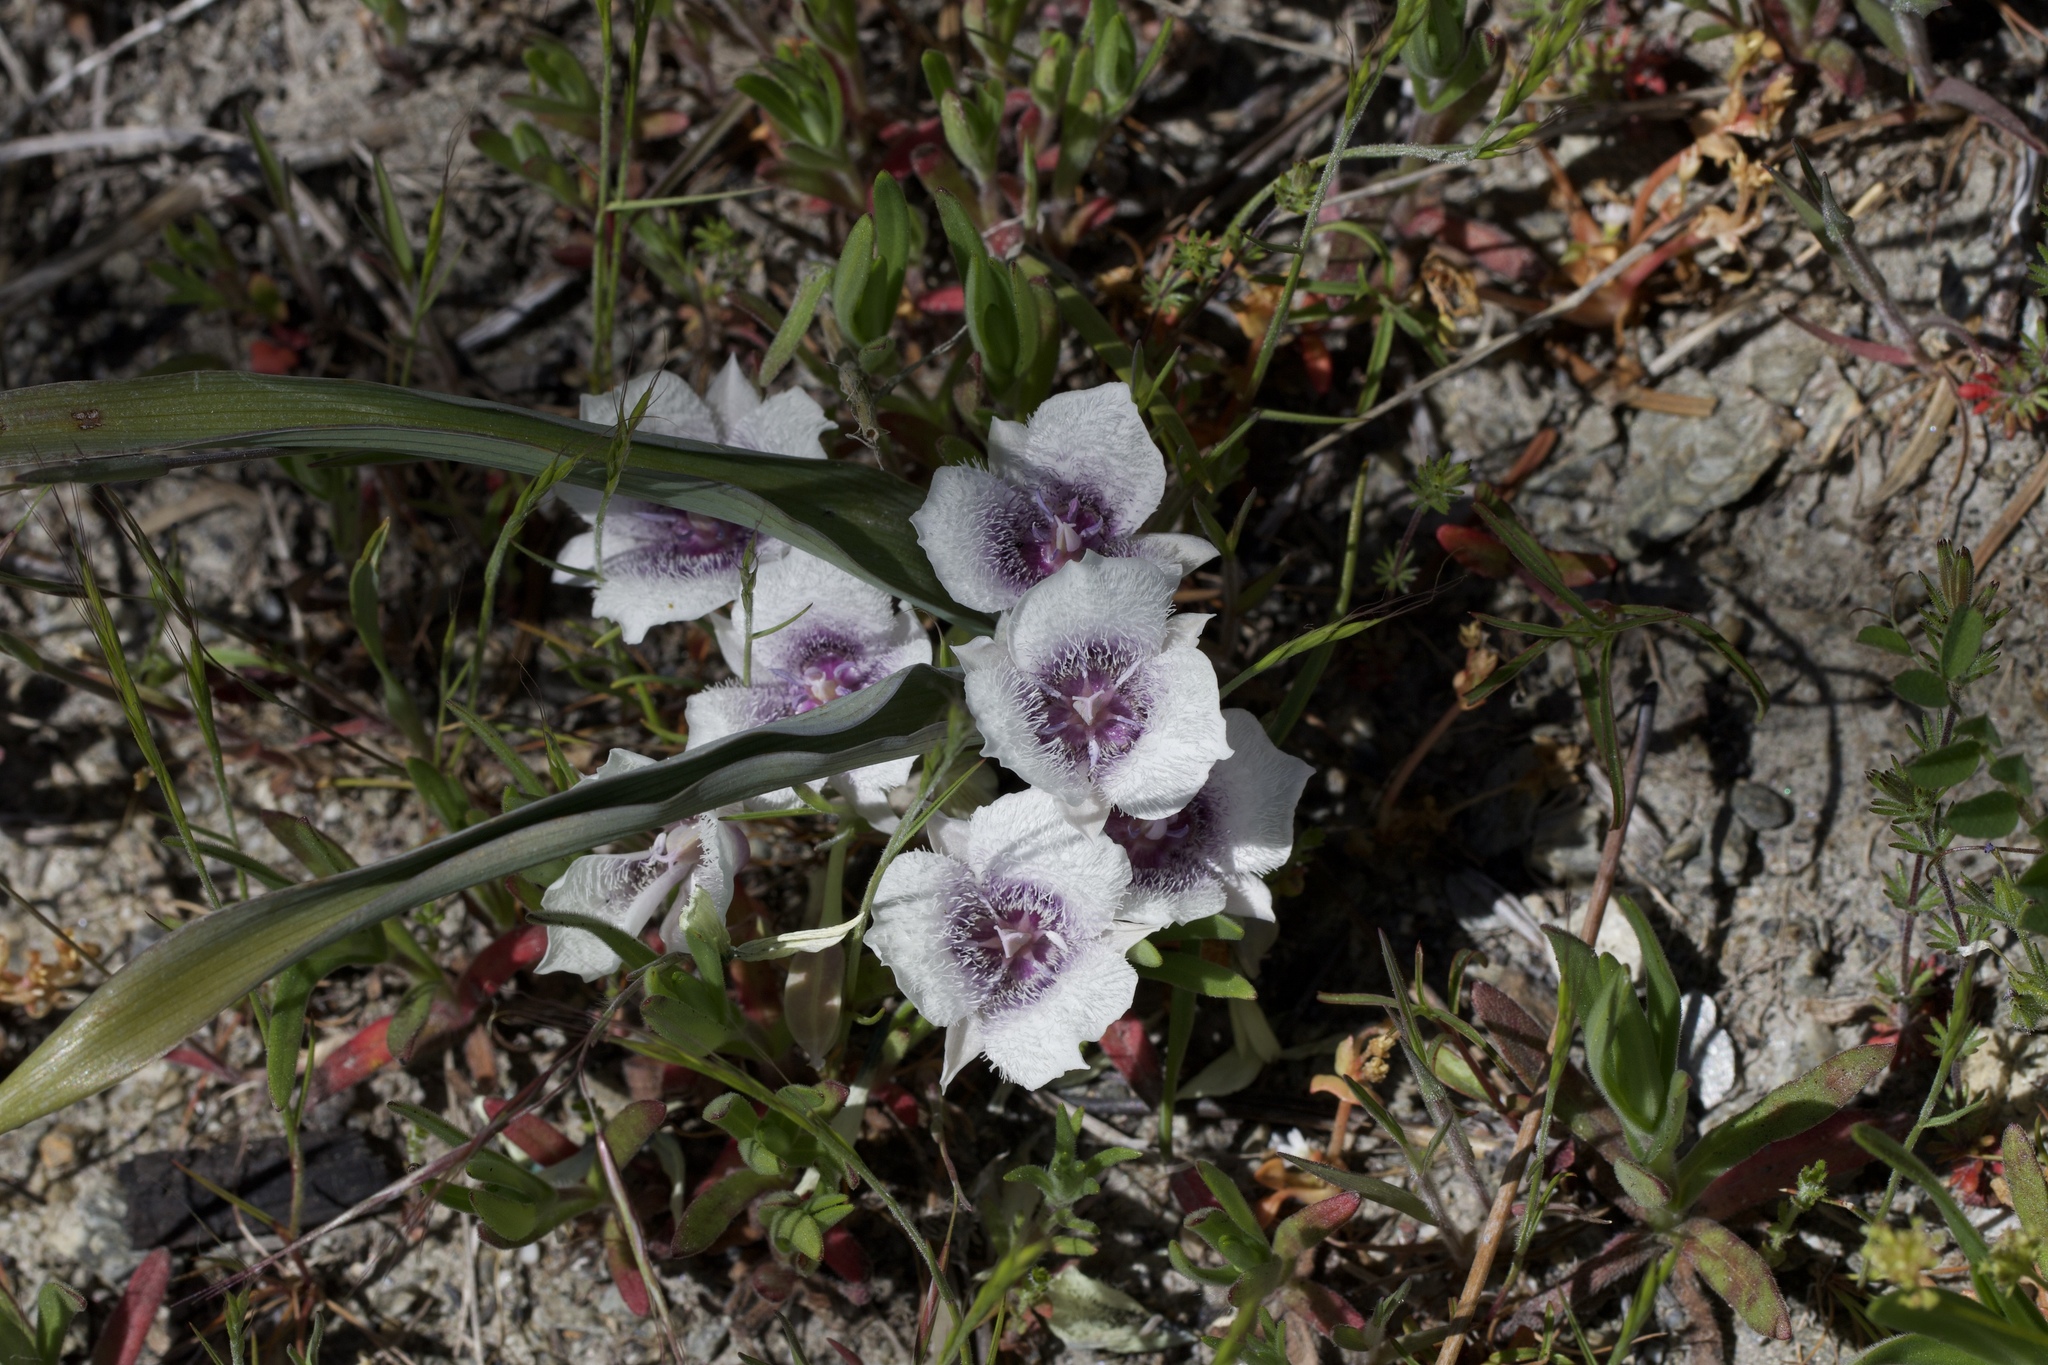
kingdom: Plantae
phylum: Tracheophyta
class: Liliopsida
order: Liliales
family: Liliaceae
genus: Calochortus
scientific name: Calochortus tolmiei
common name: Pussy-ears
